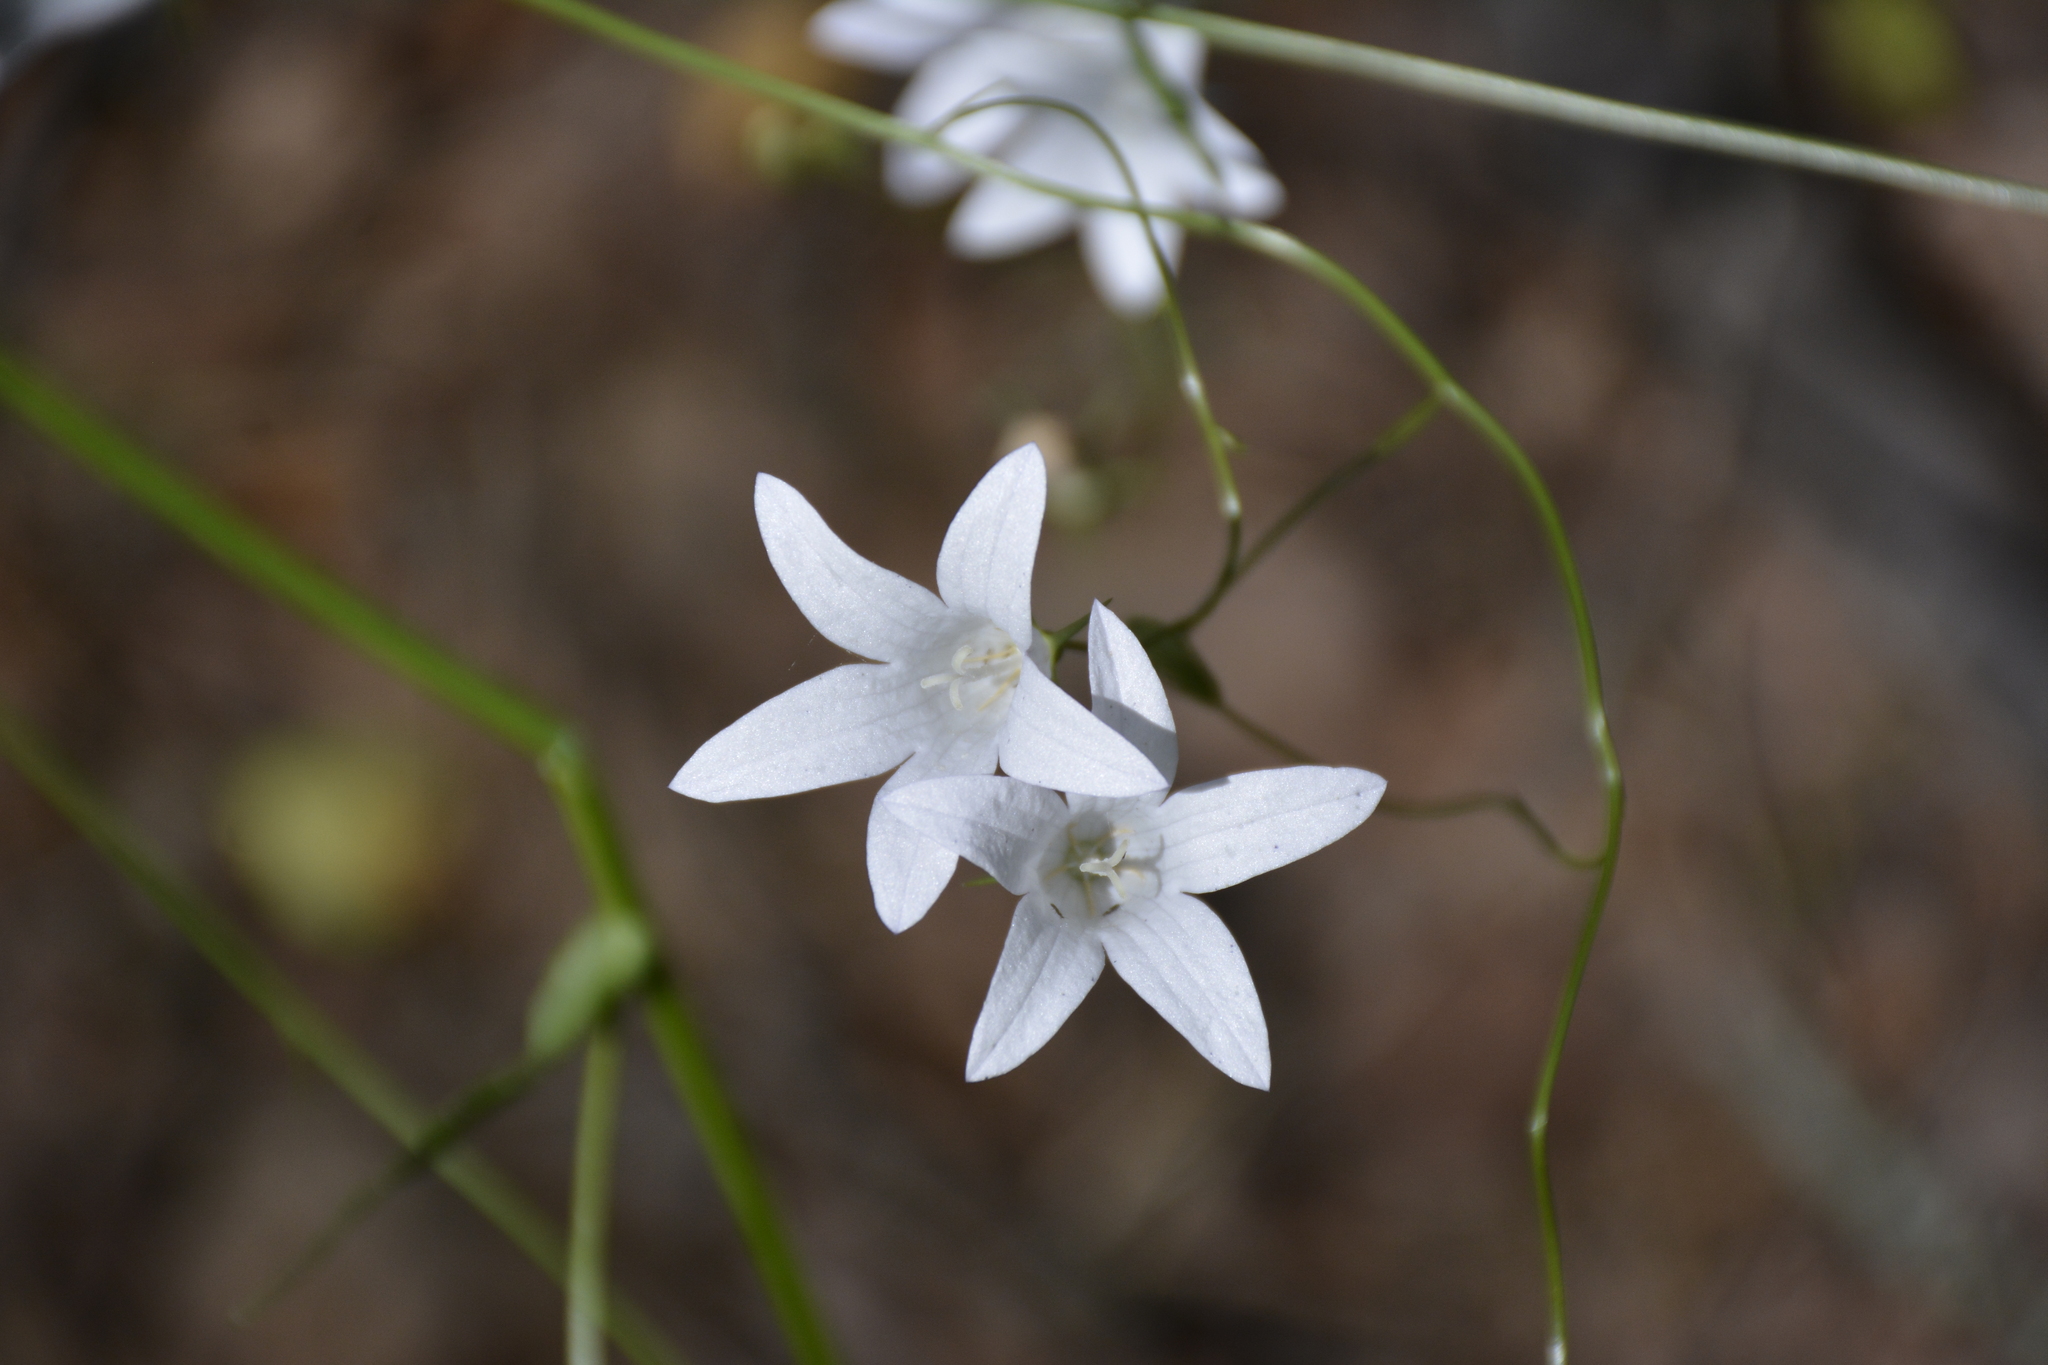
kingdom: Plantae
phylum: Tracheophyta
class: Magnoliopsida
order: Asterales
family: Campanulaceae
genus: Campanula
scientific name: Campanula patula
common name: Spreading bellflower
